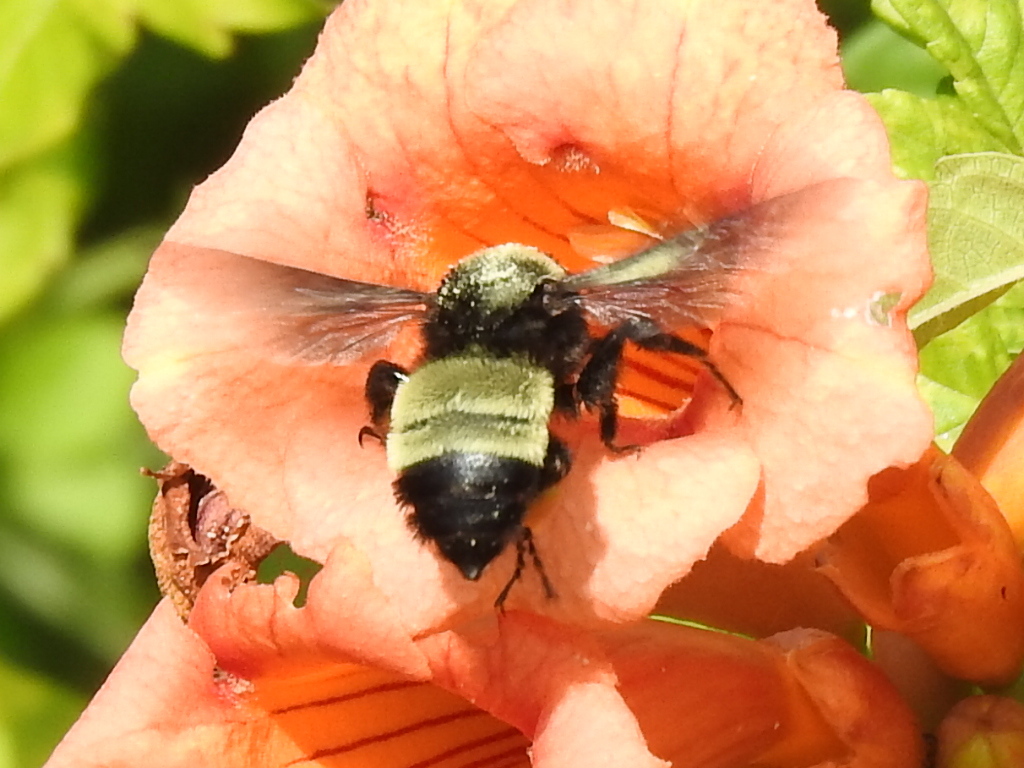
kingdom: Animalia
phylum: Arthropoda
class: Insecta
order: Hymenoptera
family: Apidae
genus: Bombus
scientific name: Bombus pensylvanicus
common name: Bumble bee
